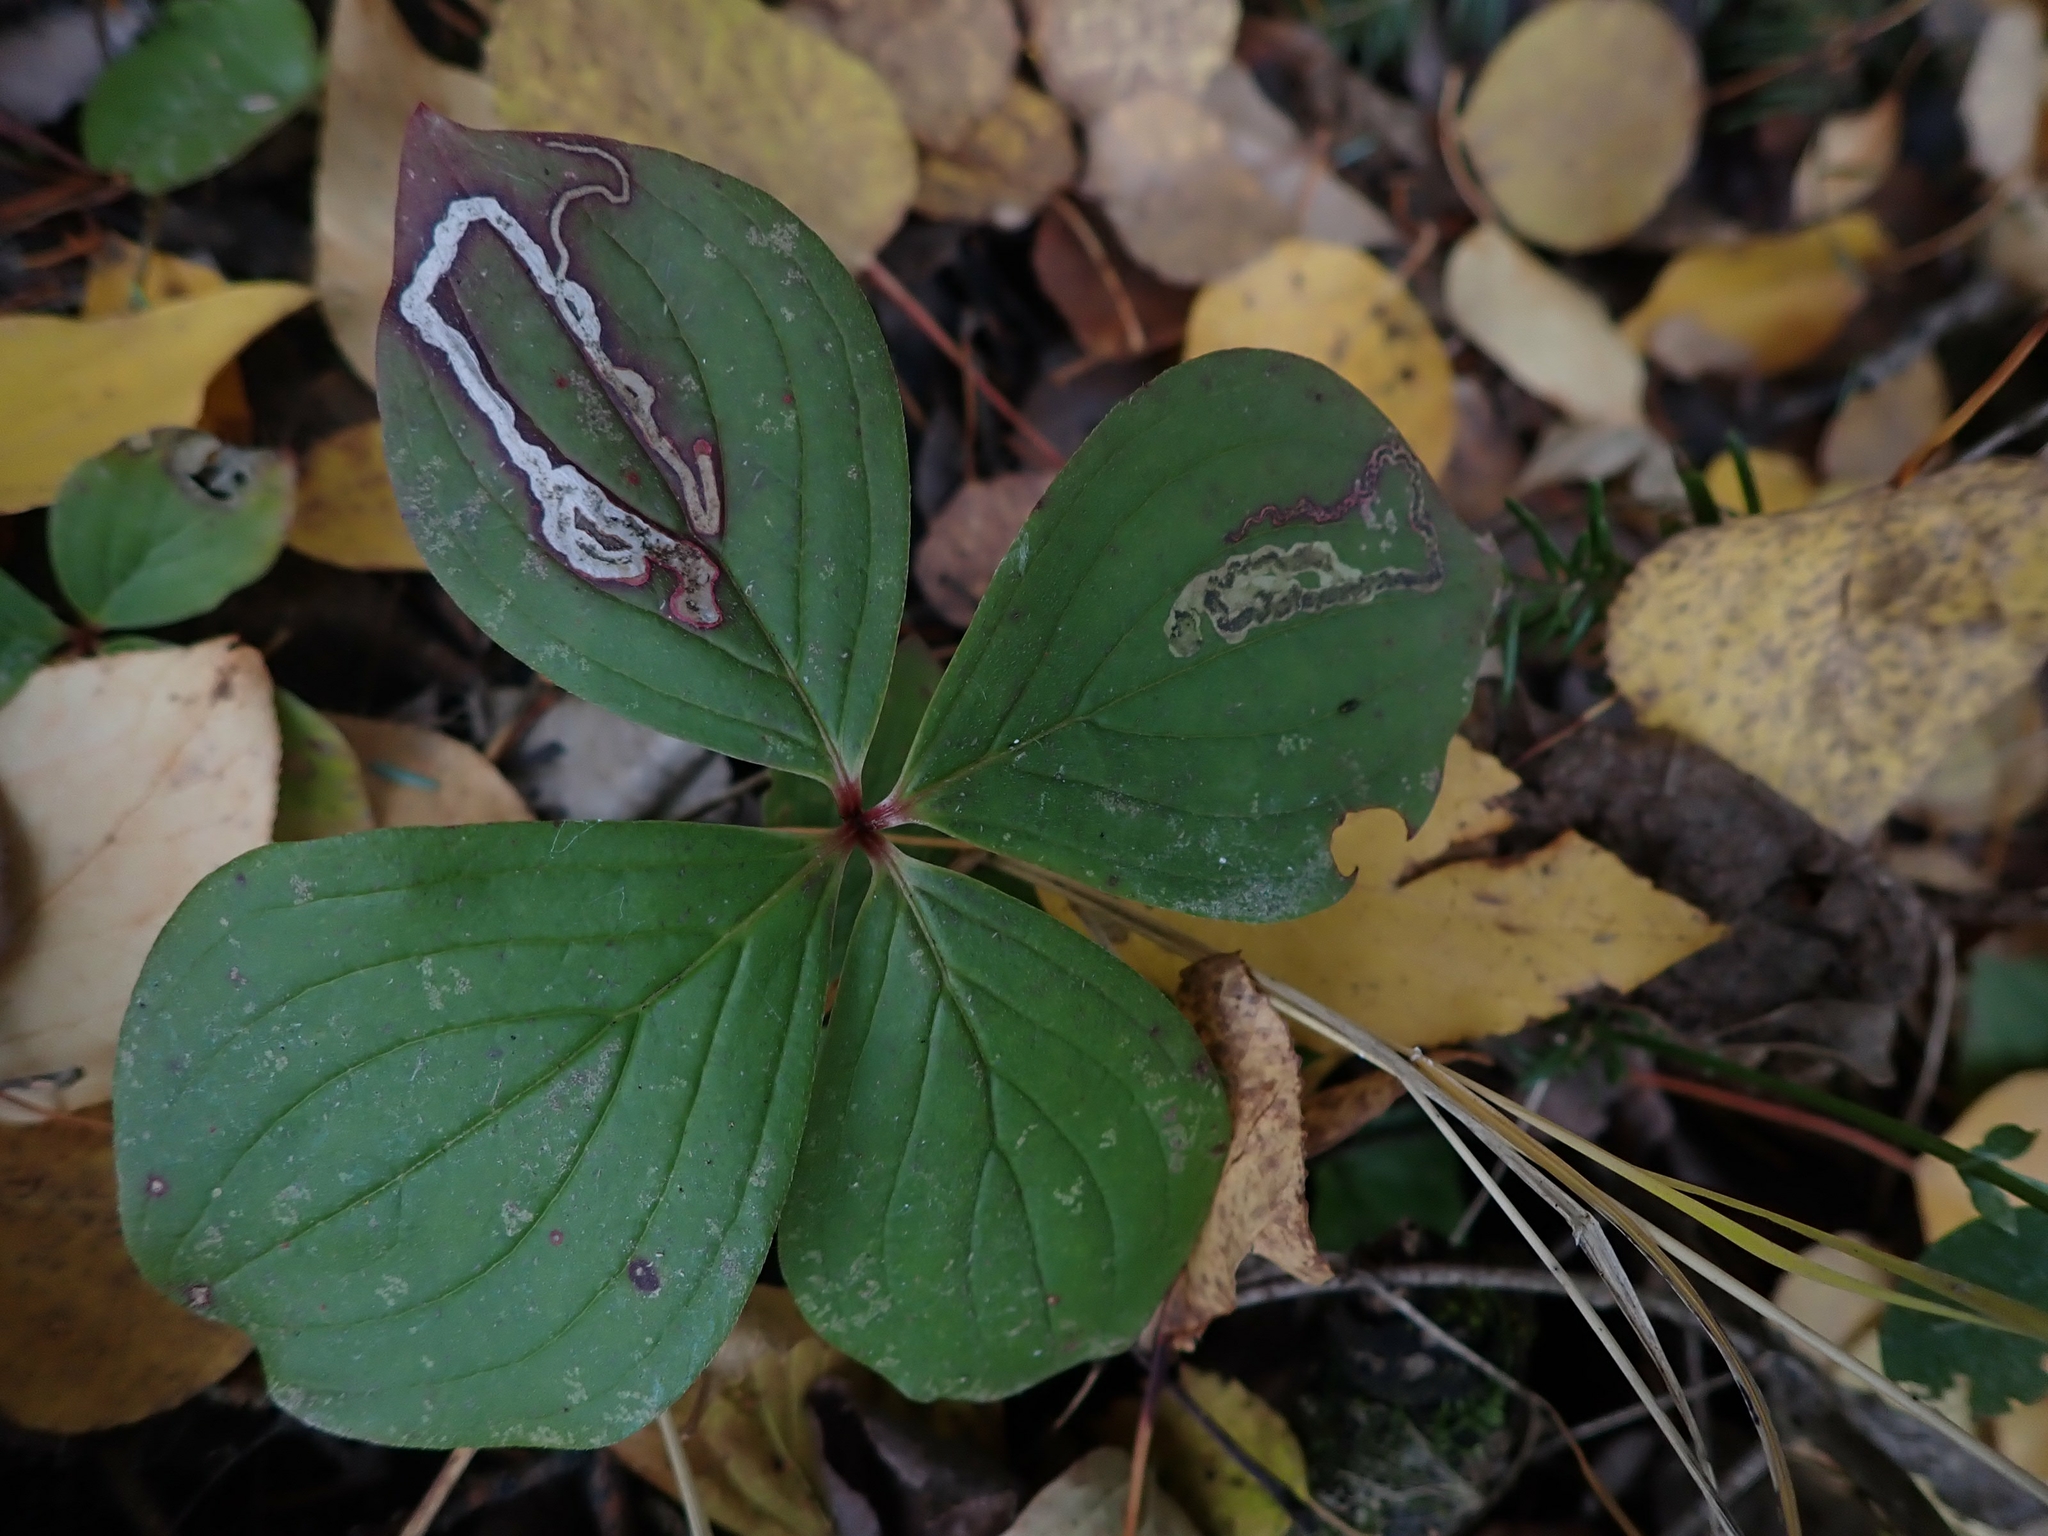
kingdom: Animalia
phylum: Arthropoda
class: Insecta
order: Diptera
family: Agromyzidae
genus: Phytomyza
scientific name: Phytomyza agromyzina
